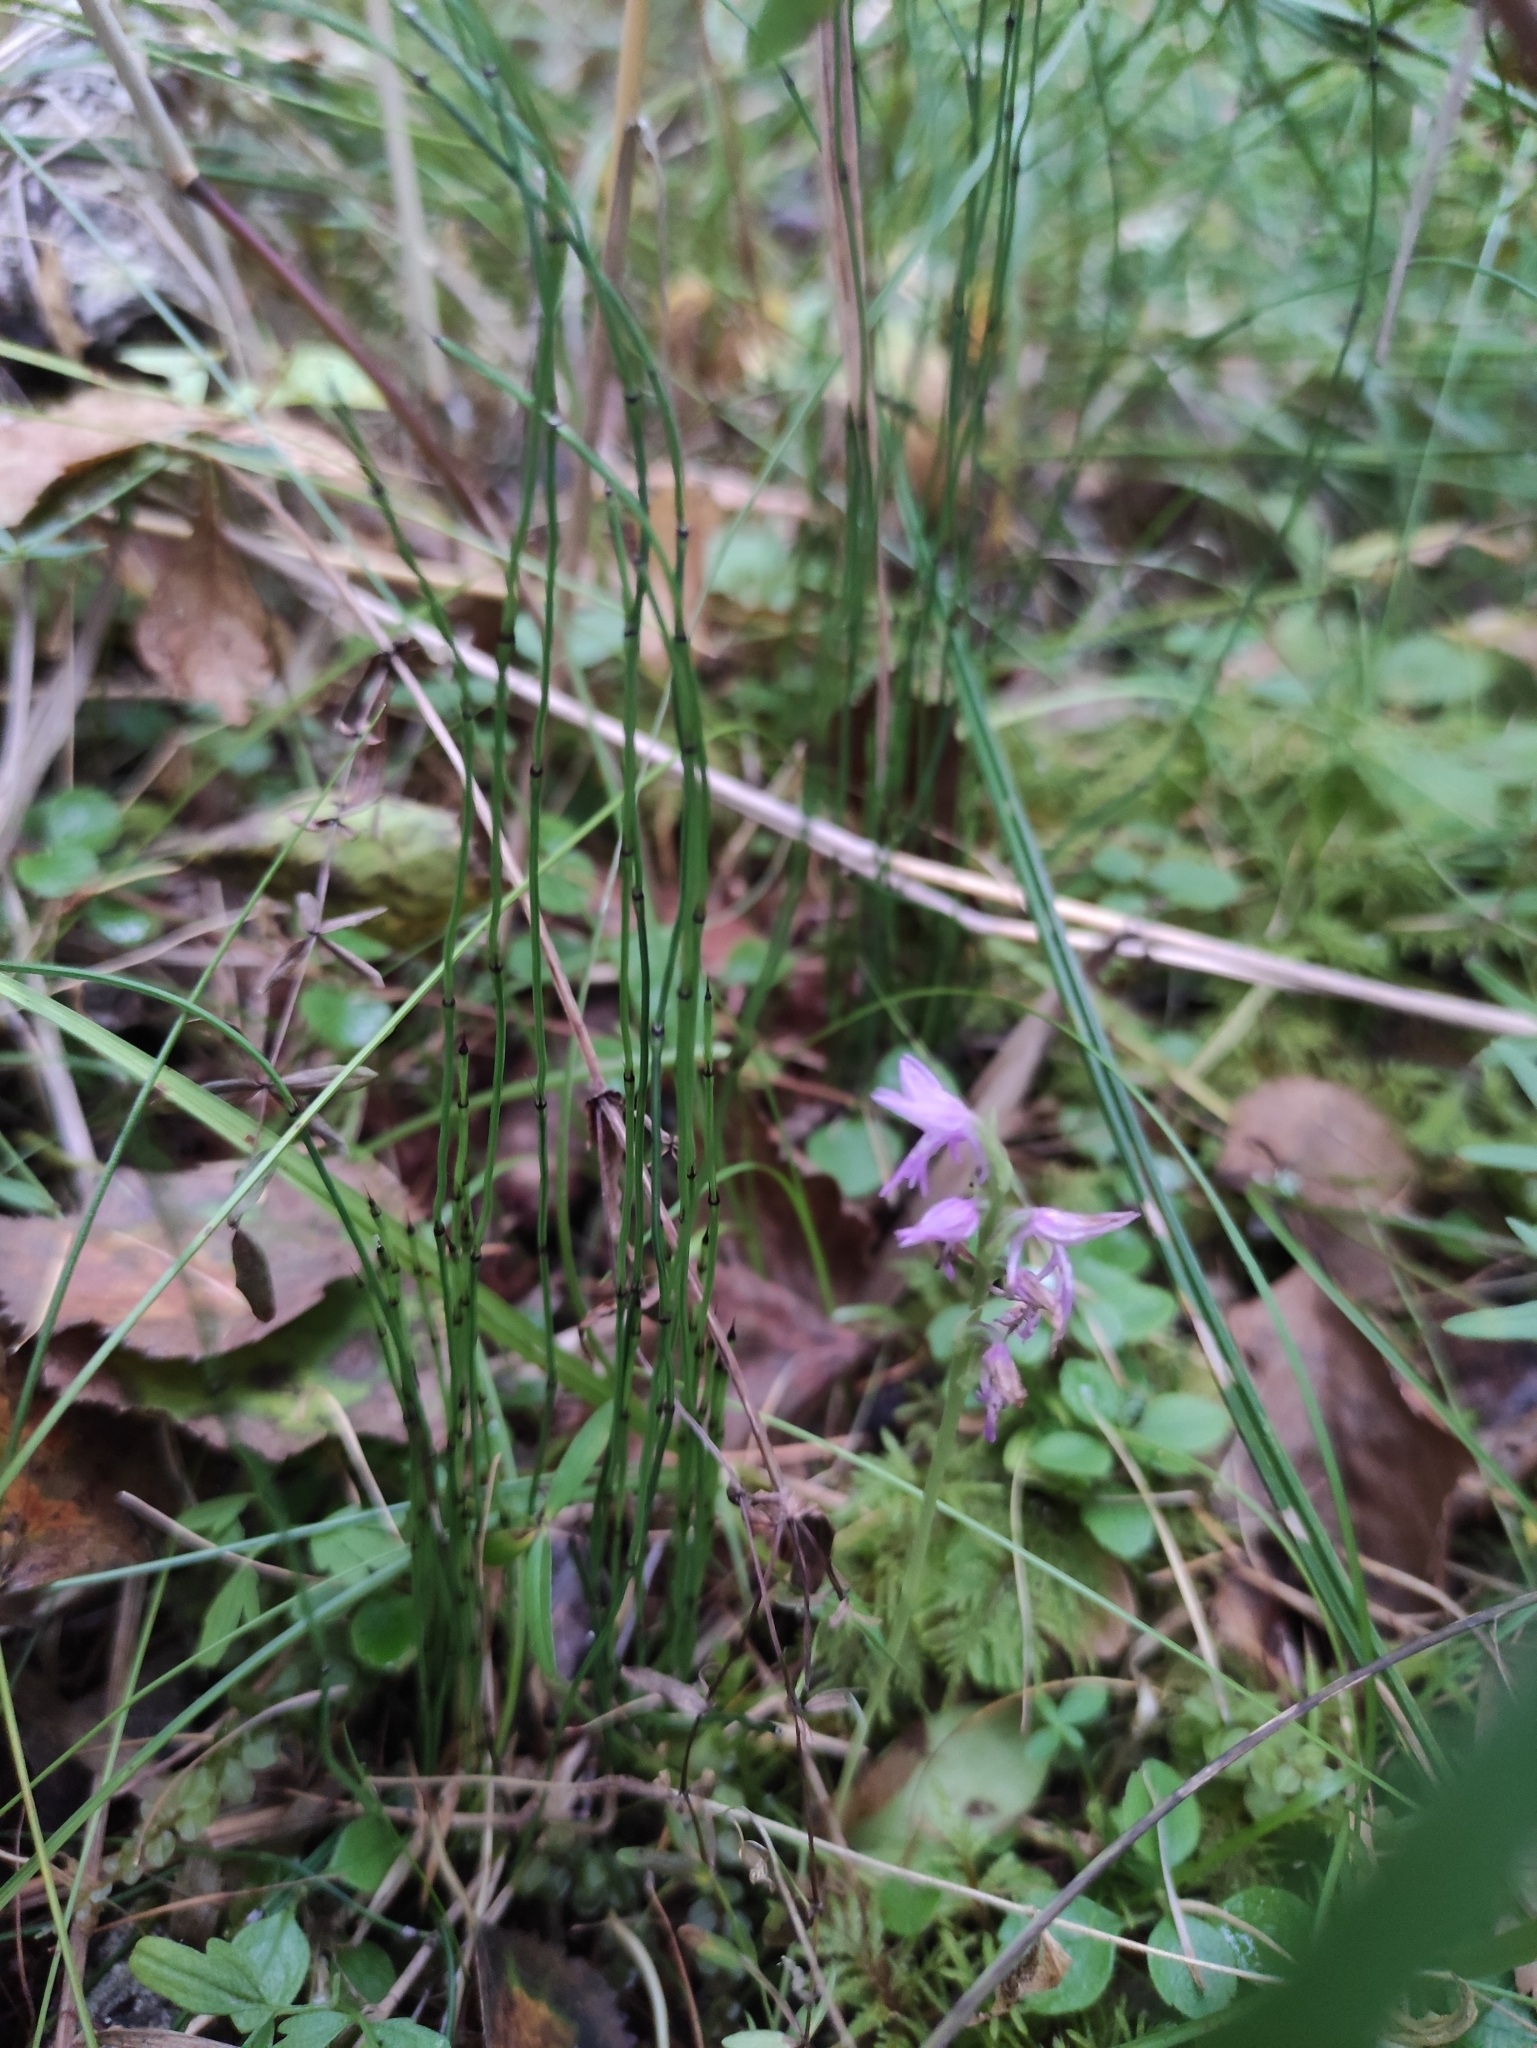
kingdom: Plantae
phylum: Tracheophyta
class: Liliopsida
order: Asparagales
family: Orchidaceae
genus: Hemipilia
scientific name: Hemipilia cucullata
